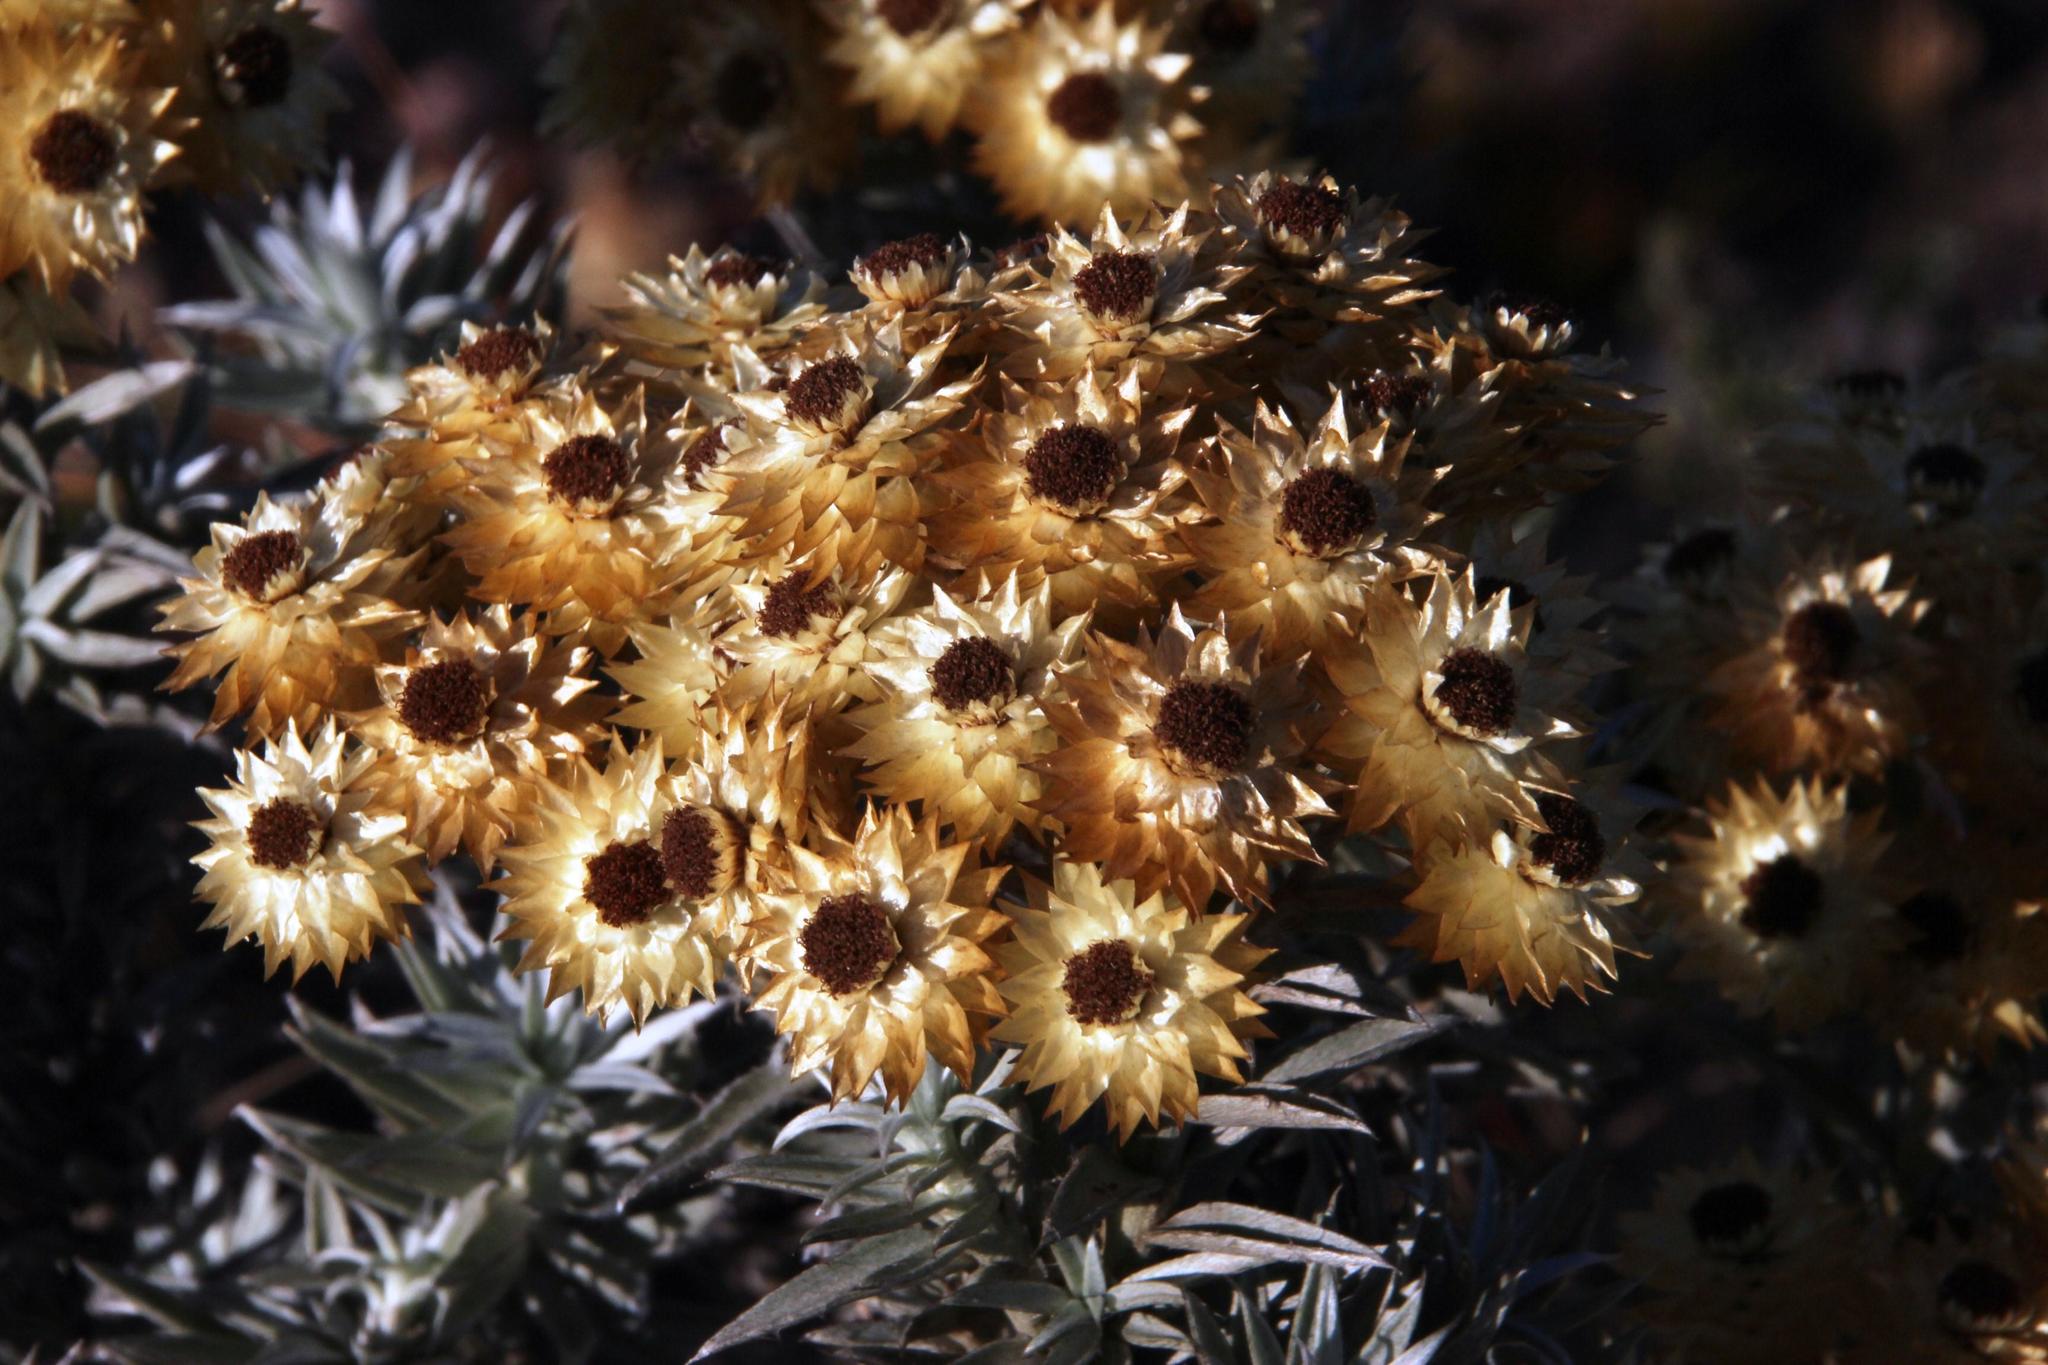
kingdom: Plantae
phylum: Tracheophyta
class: Magnoliopsida
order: Asterales
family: Asteraceae
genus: Achyranthemum
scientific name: Achyranthemum mucronatum
